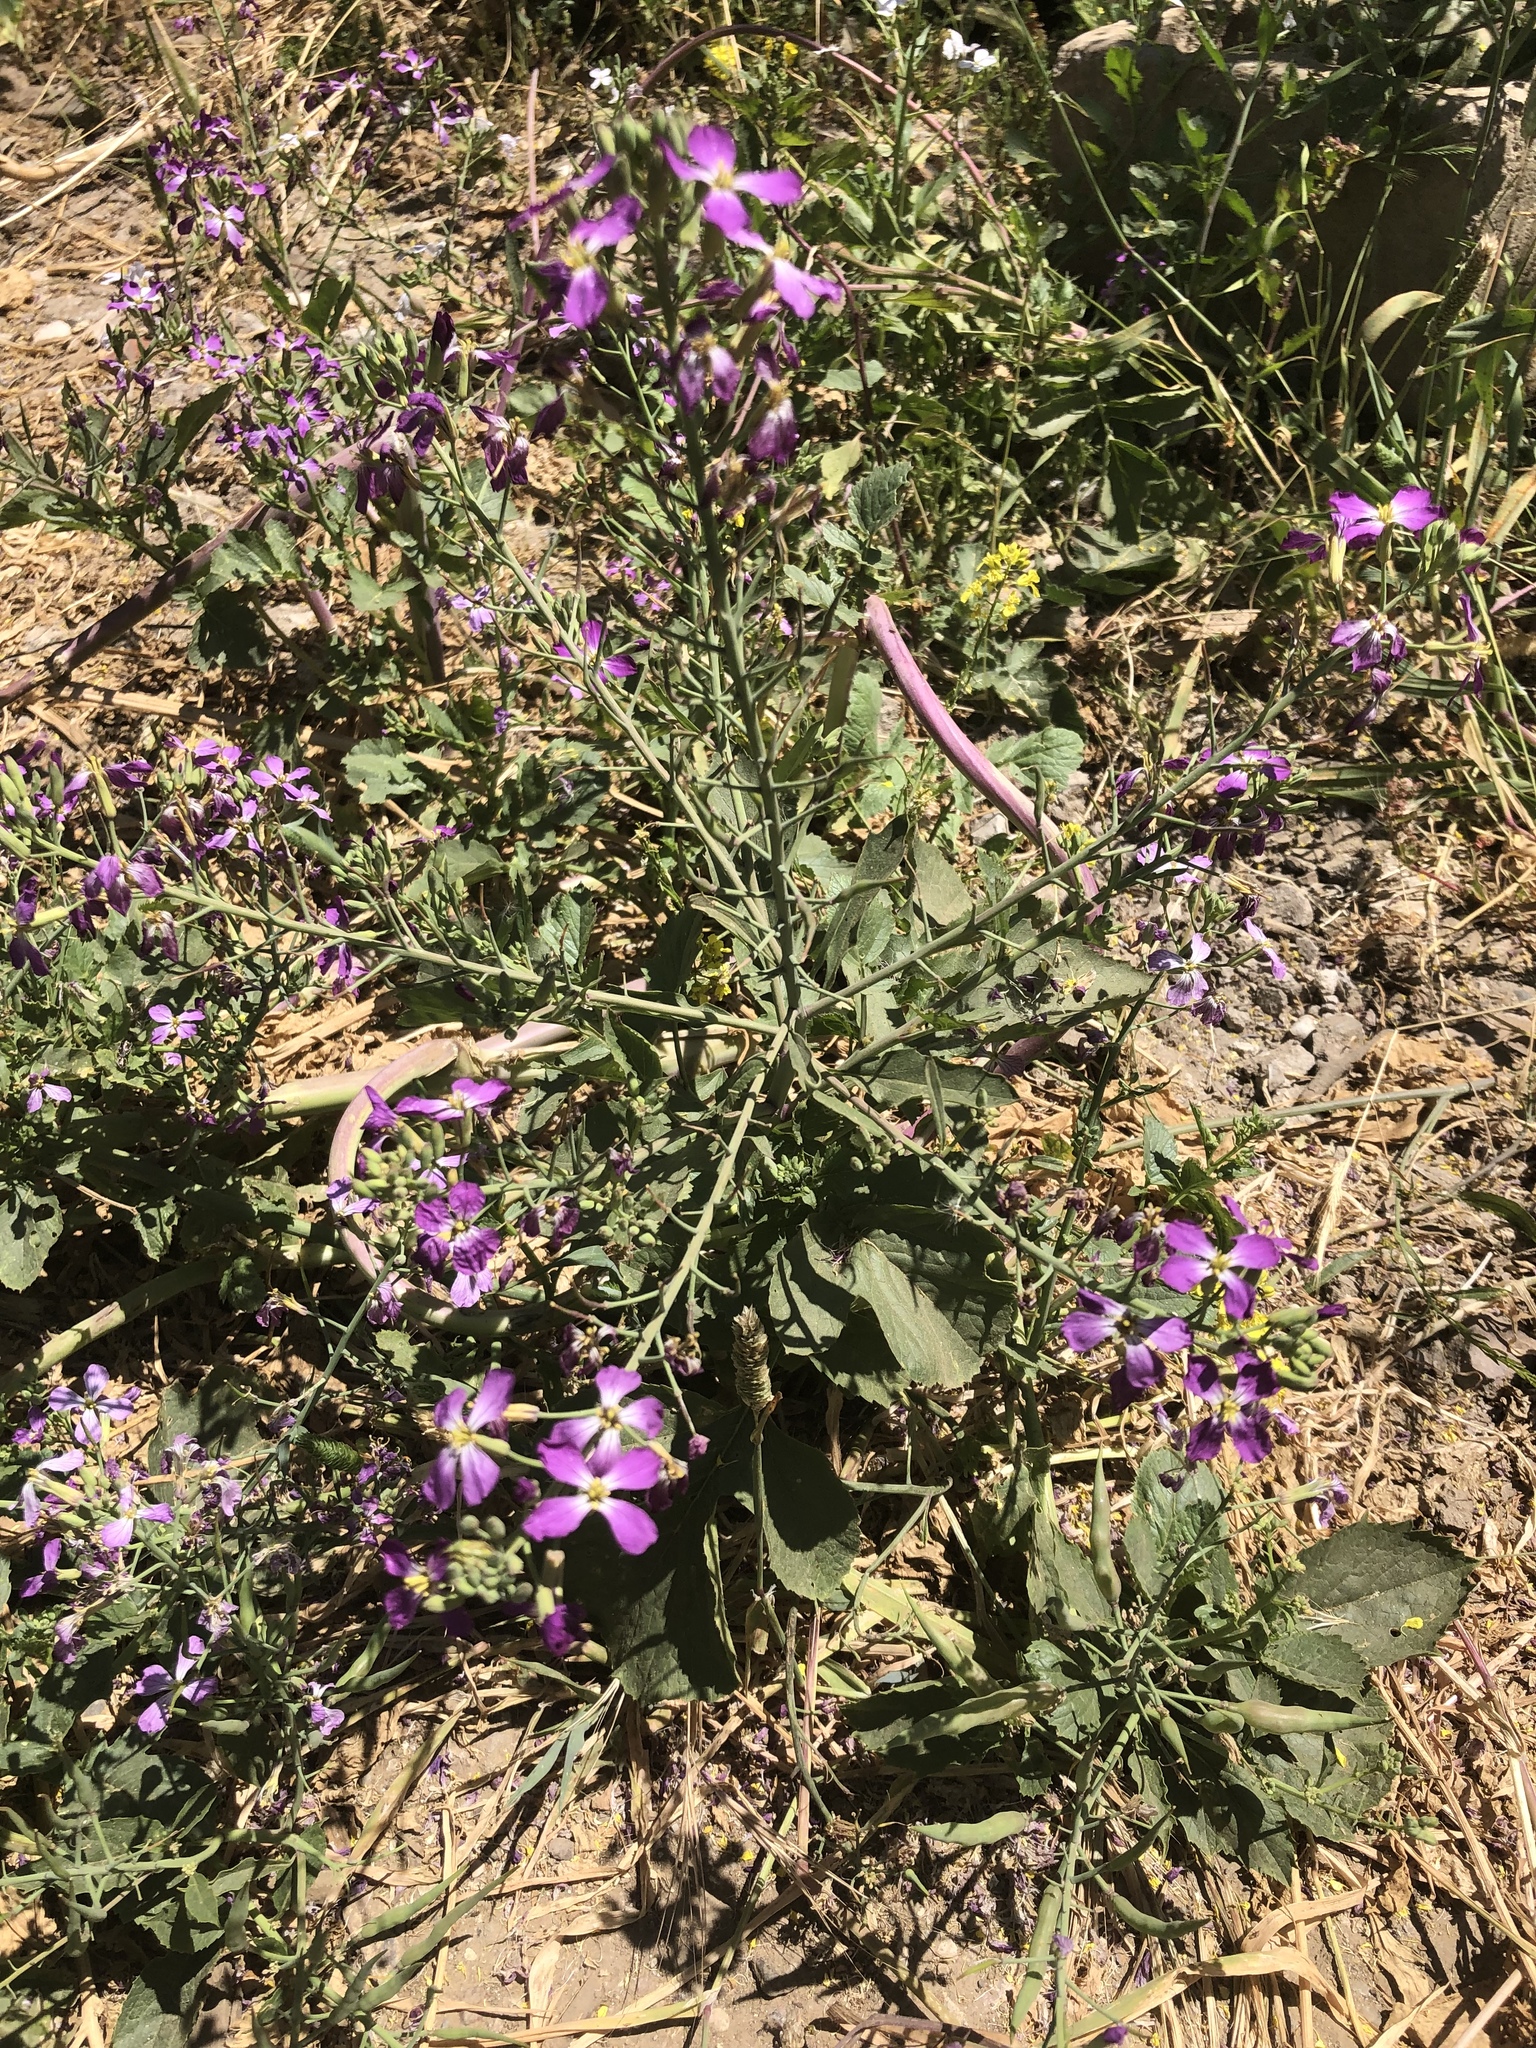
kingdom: Plantae
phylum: Tracheophyta
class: Magnoliopsida
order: Brassicales
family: Brassicaceae
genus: Raphanus
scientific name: Raphanus sativus
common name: Cultivated radish
